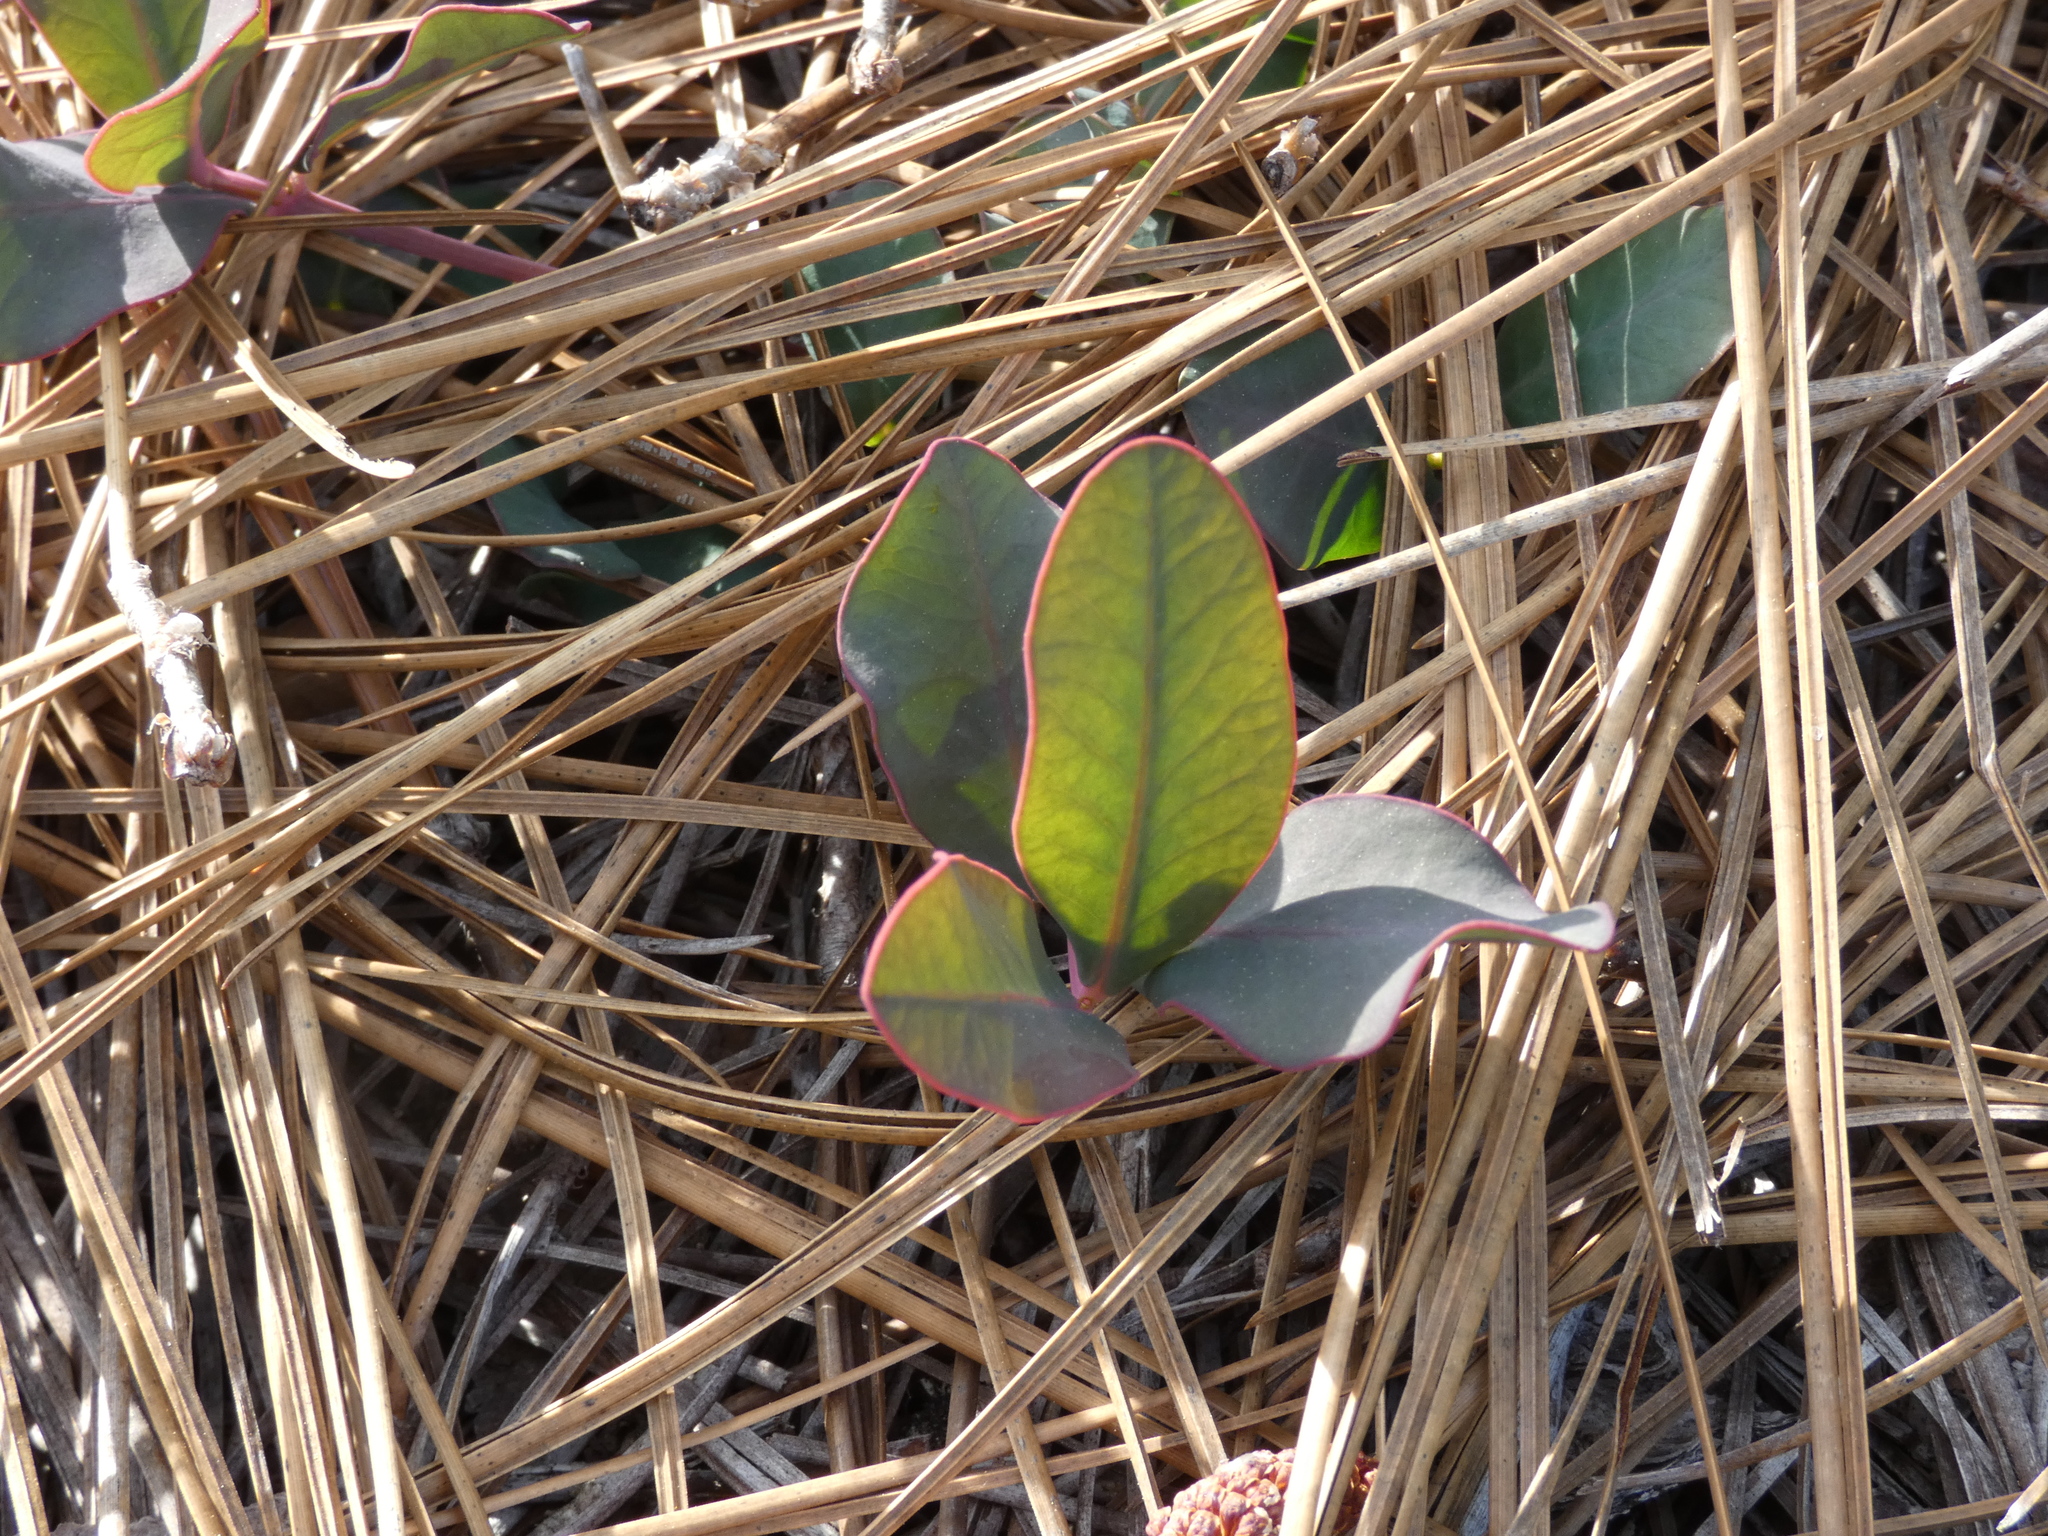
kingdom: Plantae
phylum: Tracheophyta
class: Magnoliopsida
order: Malpighiales
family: Euphorbiaceae
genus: Euphorbia
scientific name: Euphorbia ipecacuanhae
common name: Carolina ipecac
